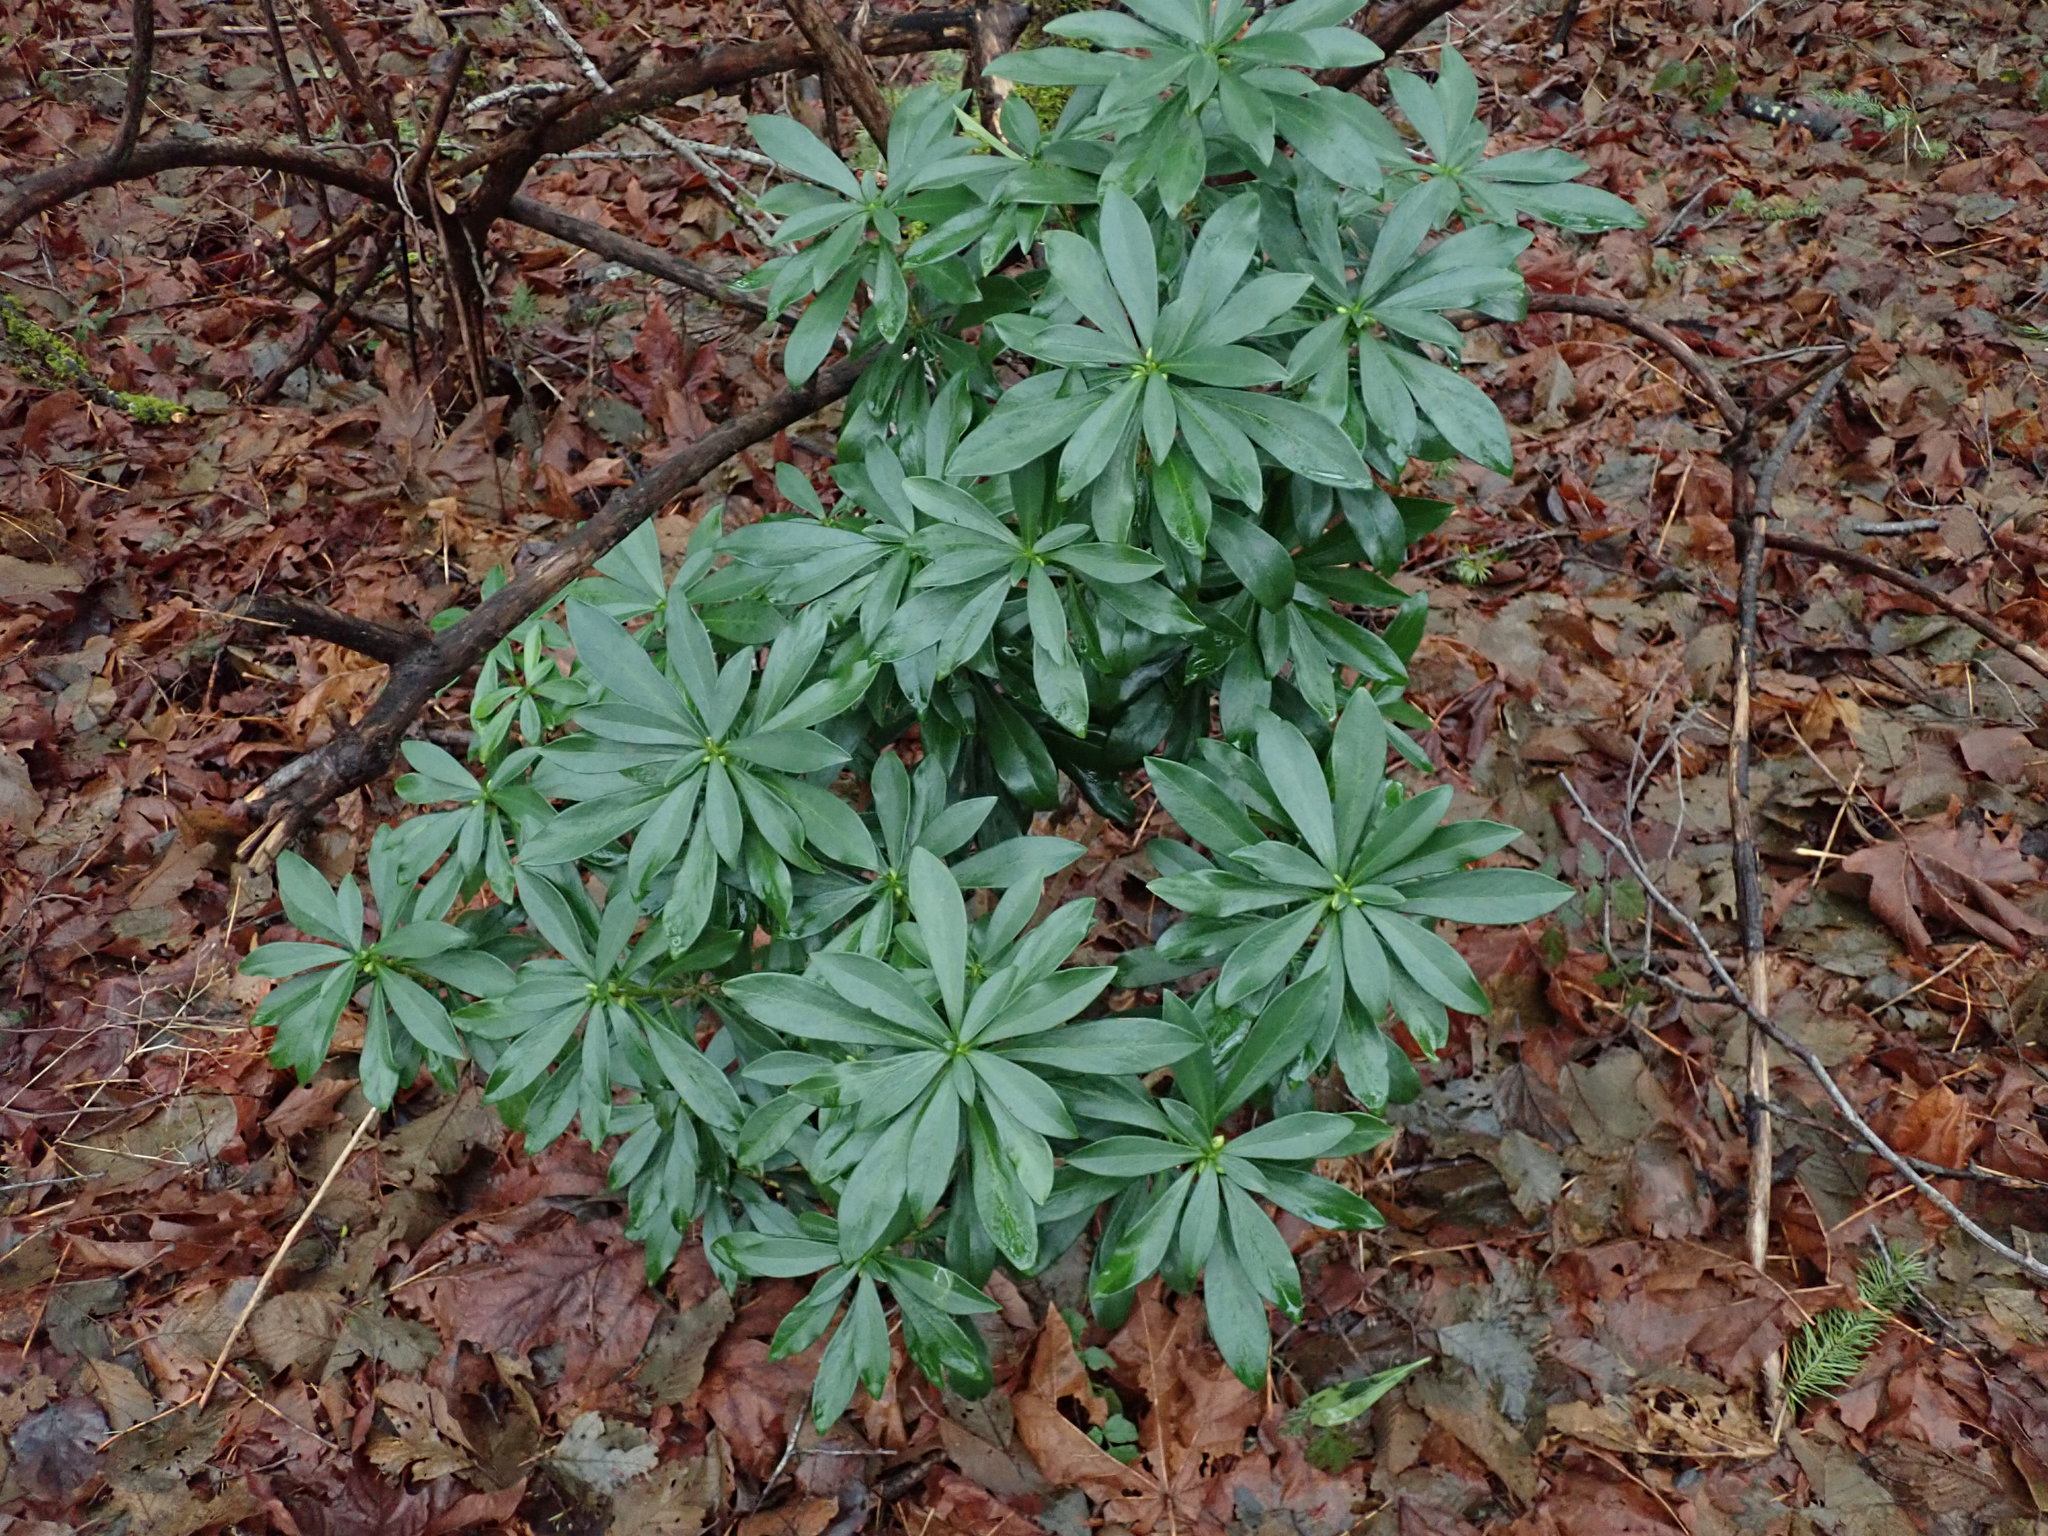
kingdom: Plantae
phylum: Tracheophyta
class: Magnoliopsida
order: Malvales
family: Thymelaeaceae
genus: Daphne
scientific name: Daphne laureola
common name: Spurge-laurel
